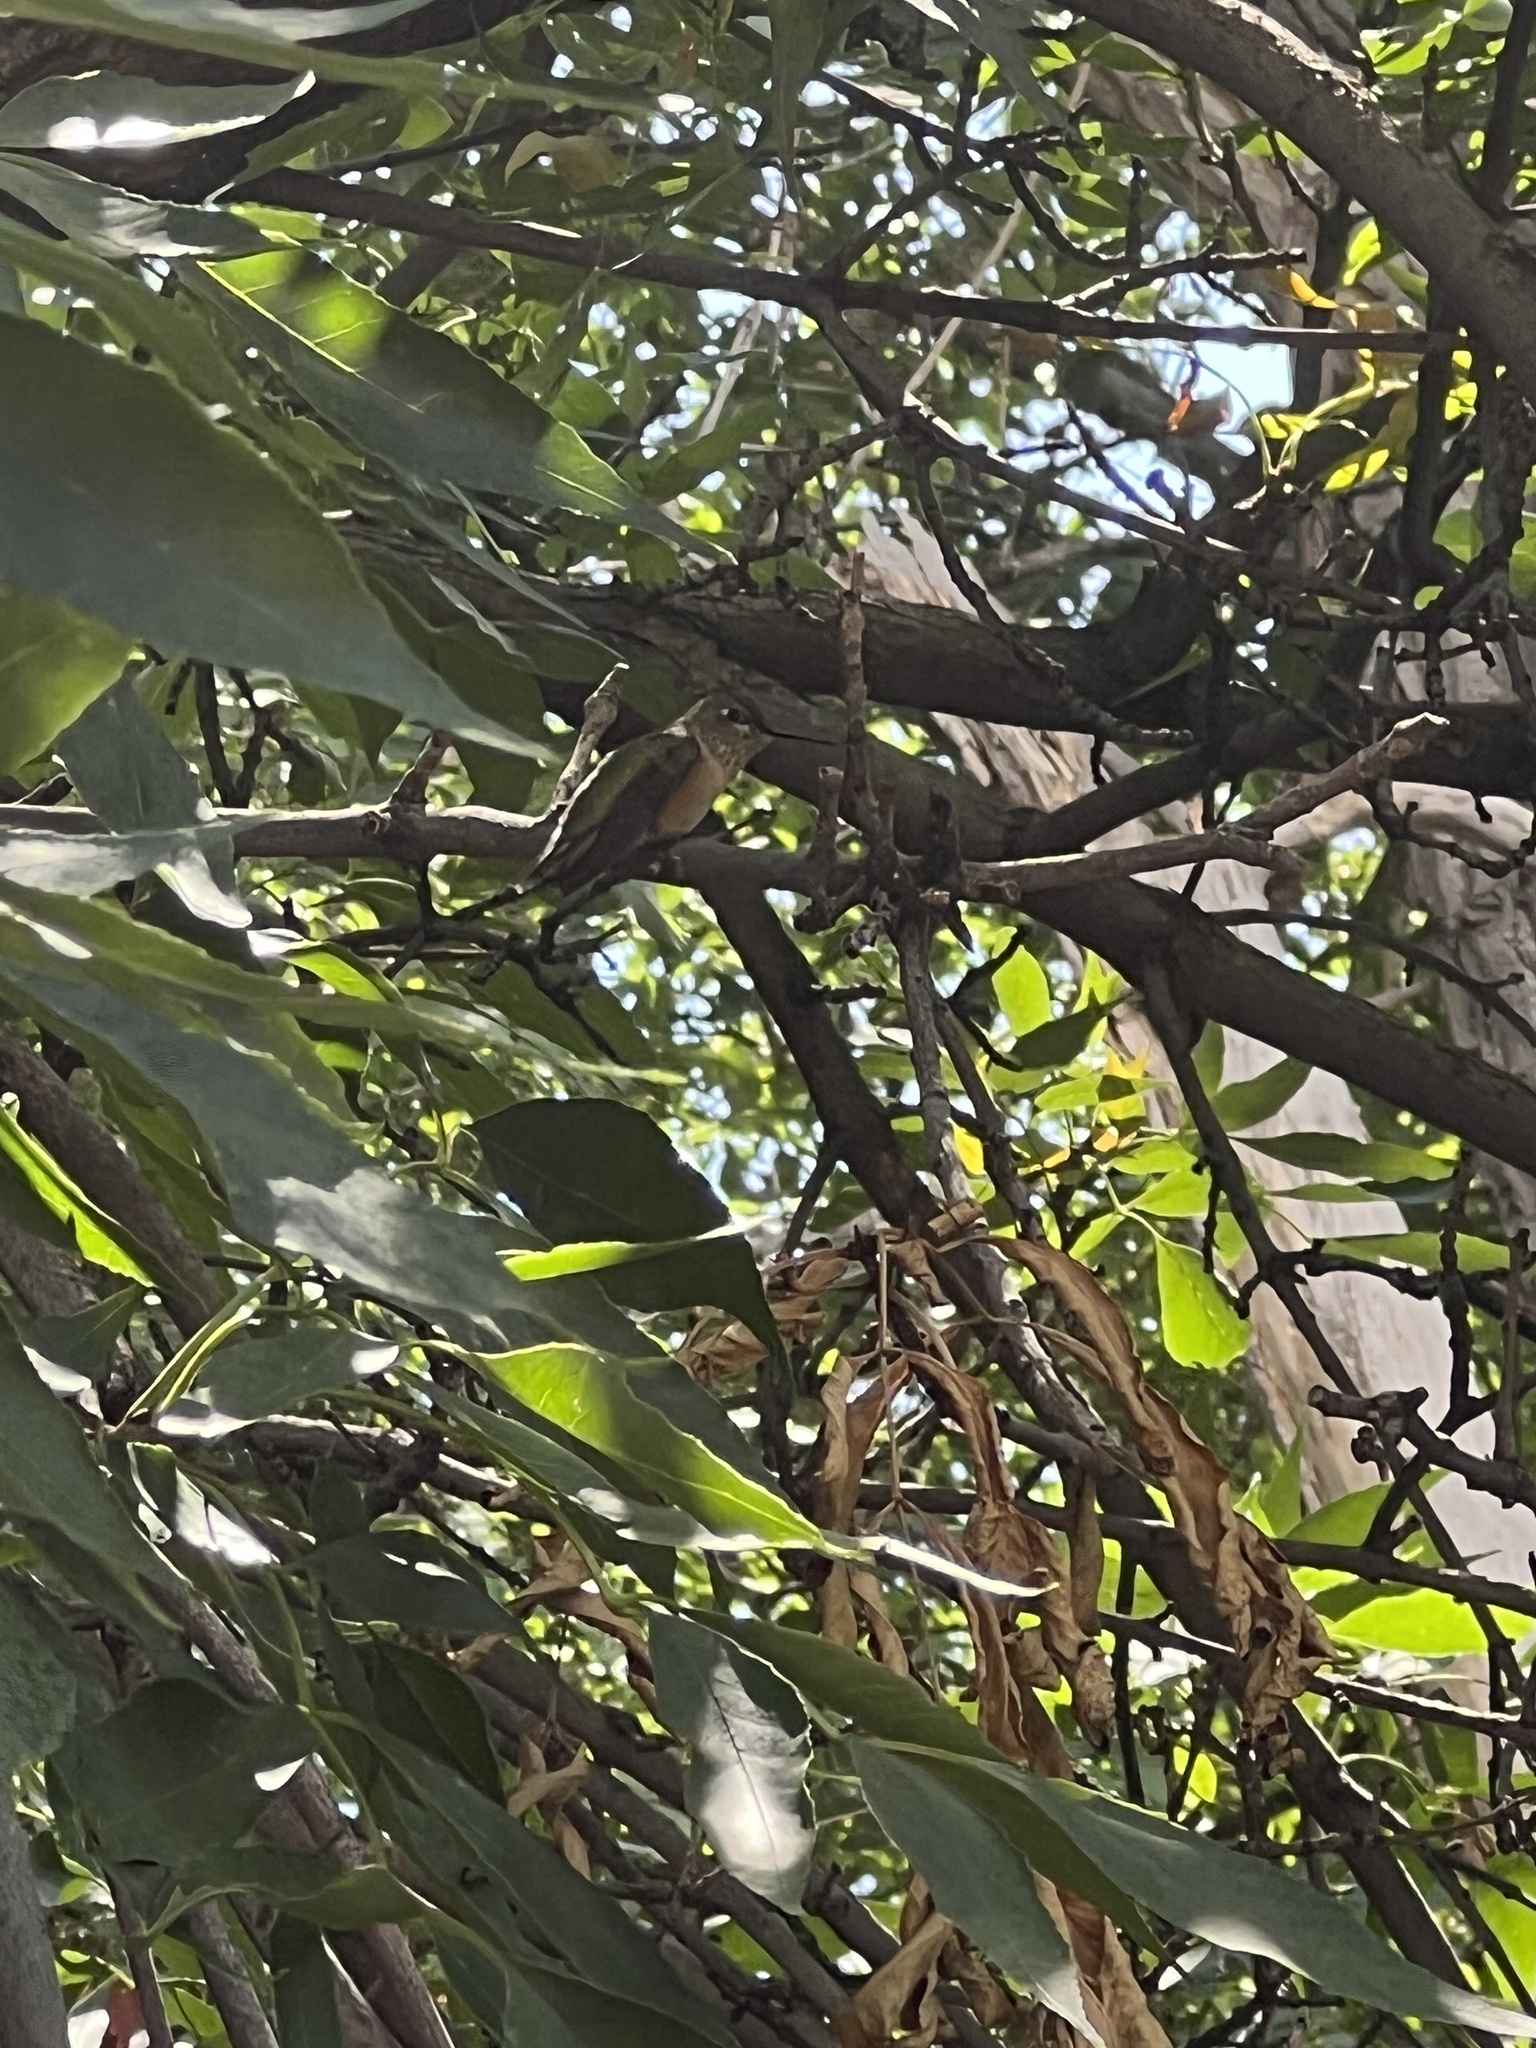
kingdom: Animalia
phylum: Chordata
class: Aves
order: Apodiformes
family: Trochilidae
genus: Selasphorus
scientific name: Selasphorus platycercus
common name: Broad-tailed hummingbird
